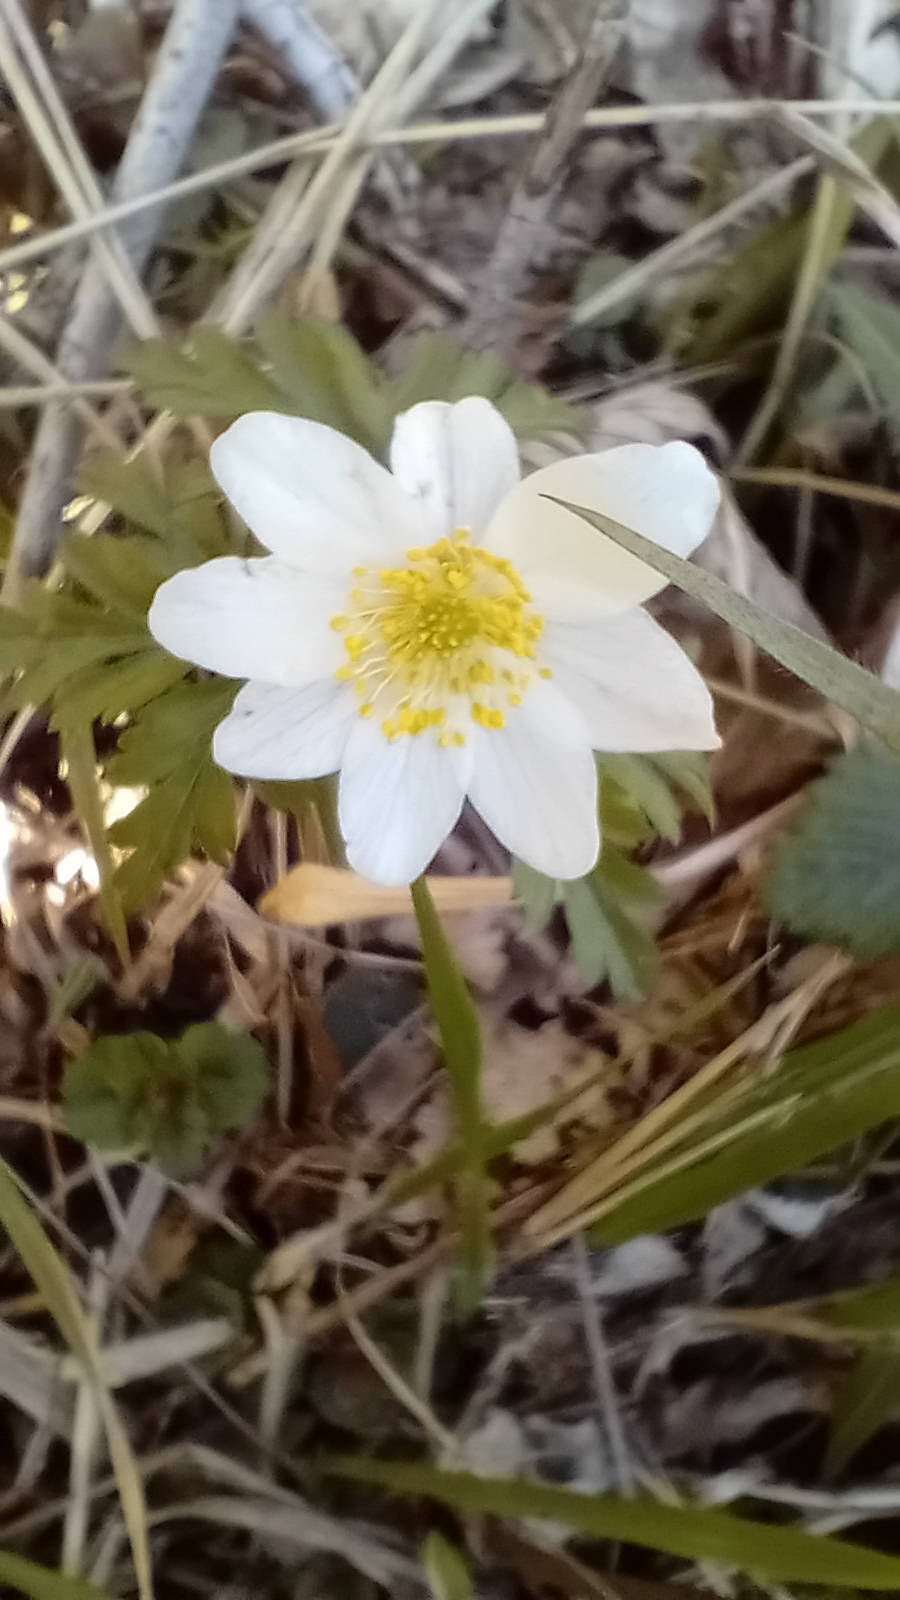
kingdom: Plantae
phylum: Tracheophyta
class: Magnoliopsida
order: Ranunculales
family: Ranunculaceae
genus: Anemone
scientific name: Anemone nemorosa
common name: Wood anemone
